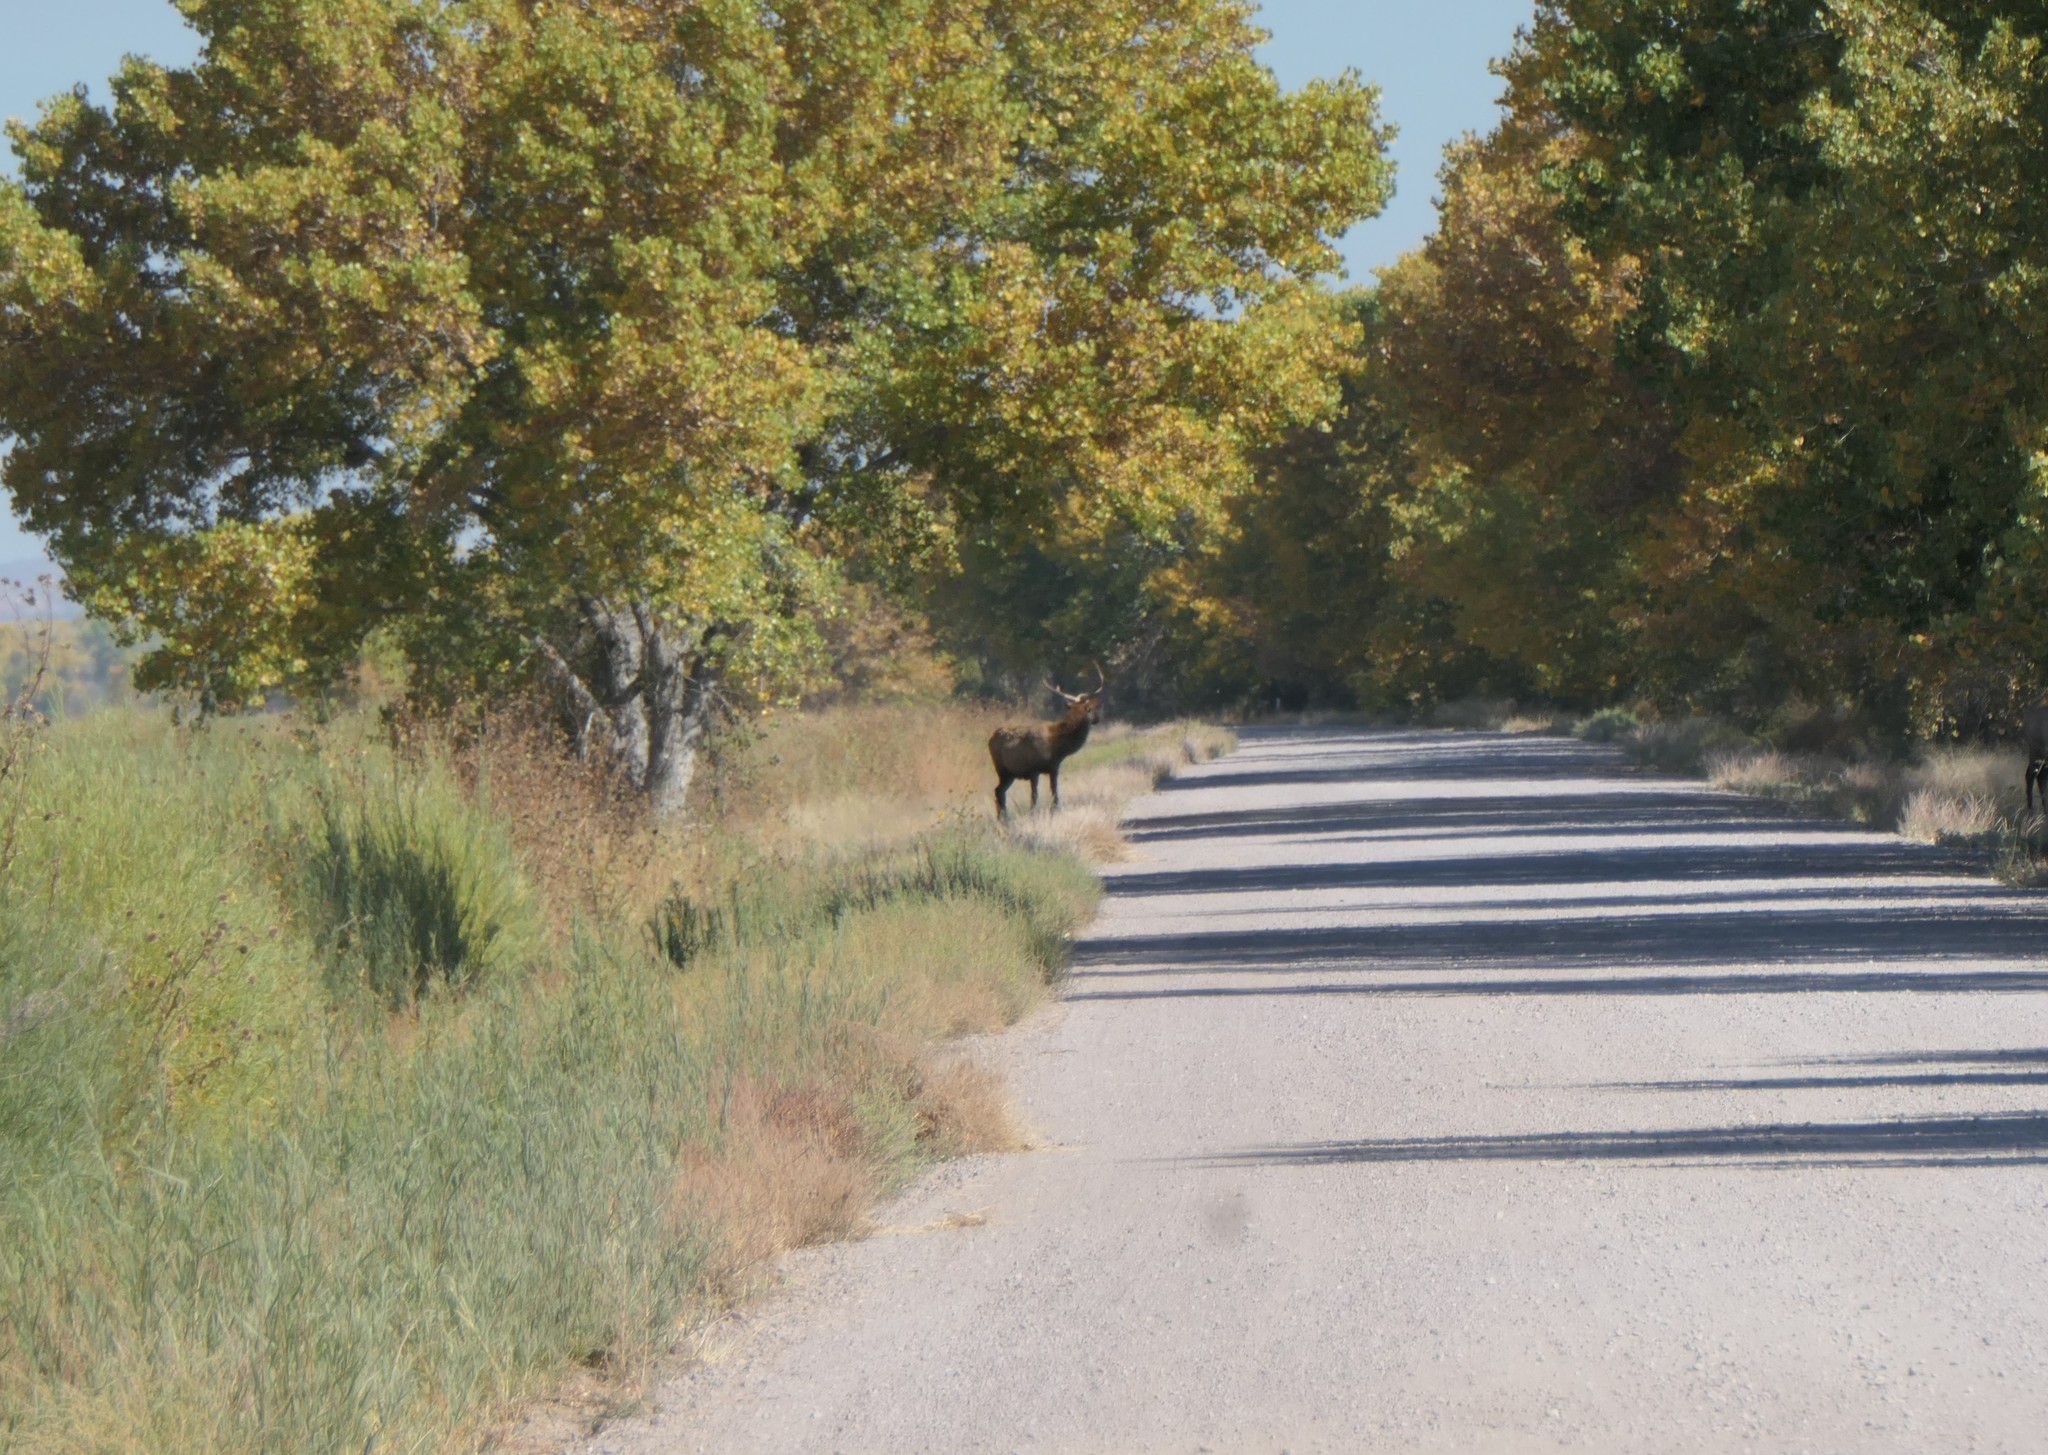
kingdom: Animalia
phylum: Chordata
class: Mammalia
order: Artiodactyla
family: Cervidae
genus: Cervus
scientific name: Cervus elaphus
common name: Red deer
